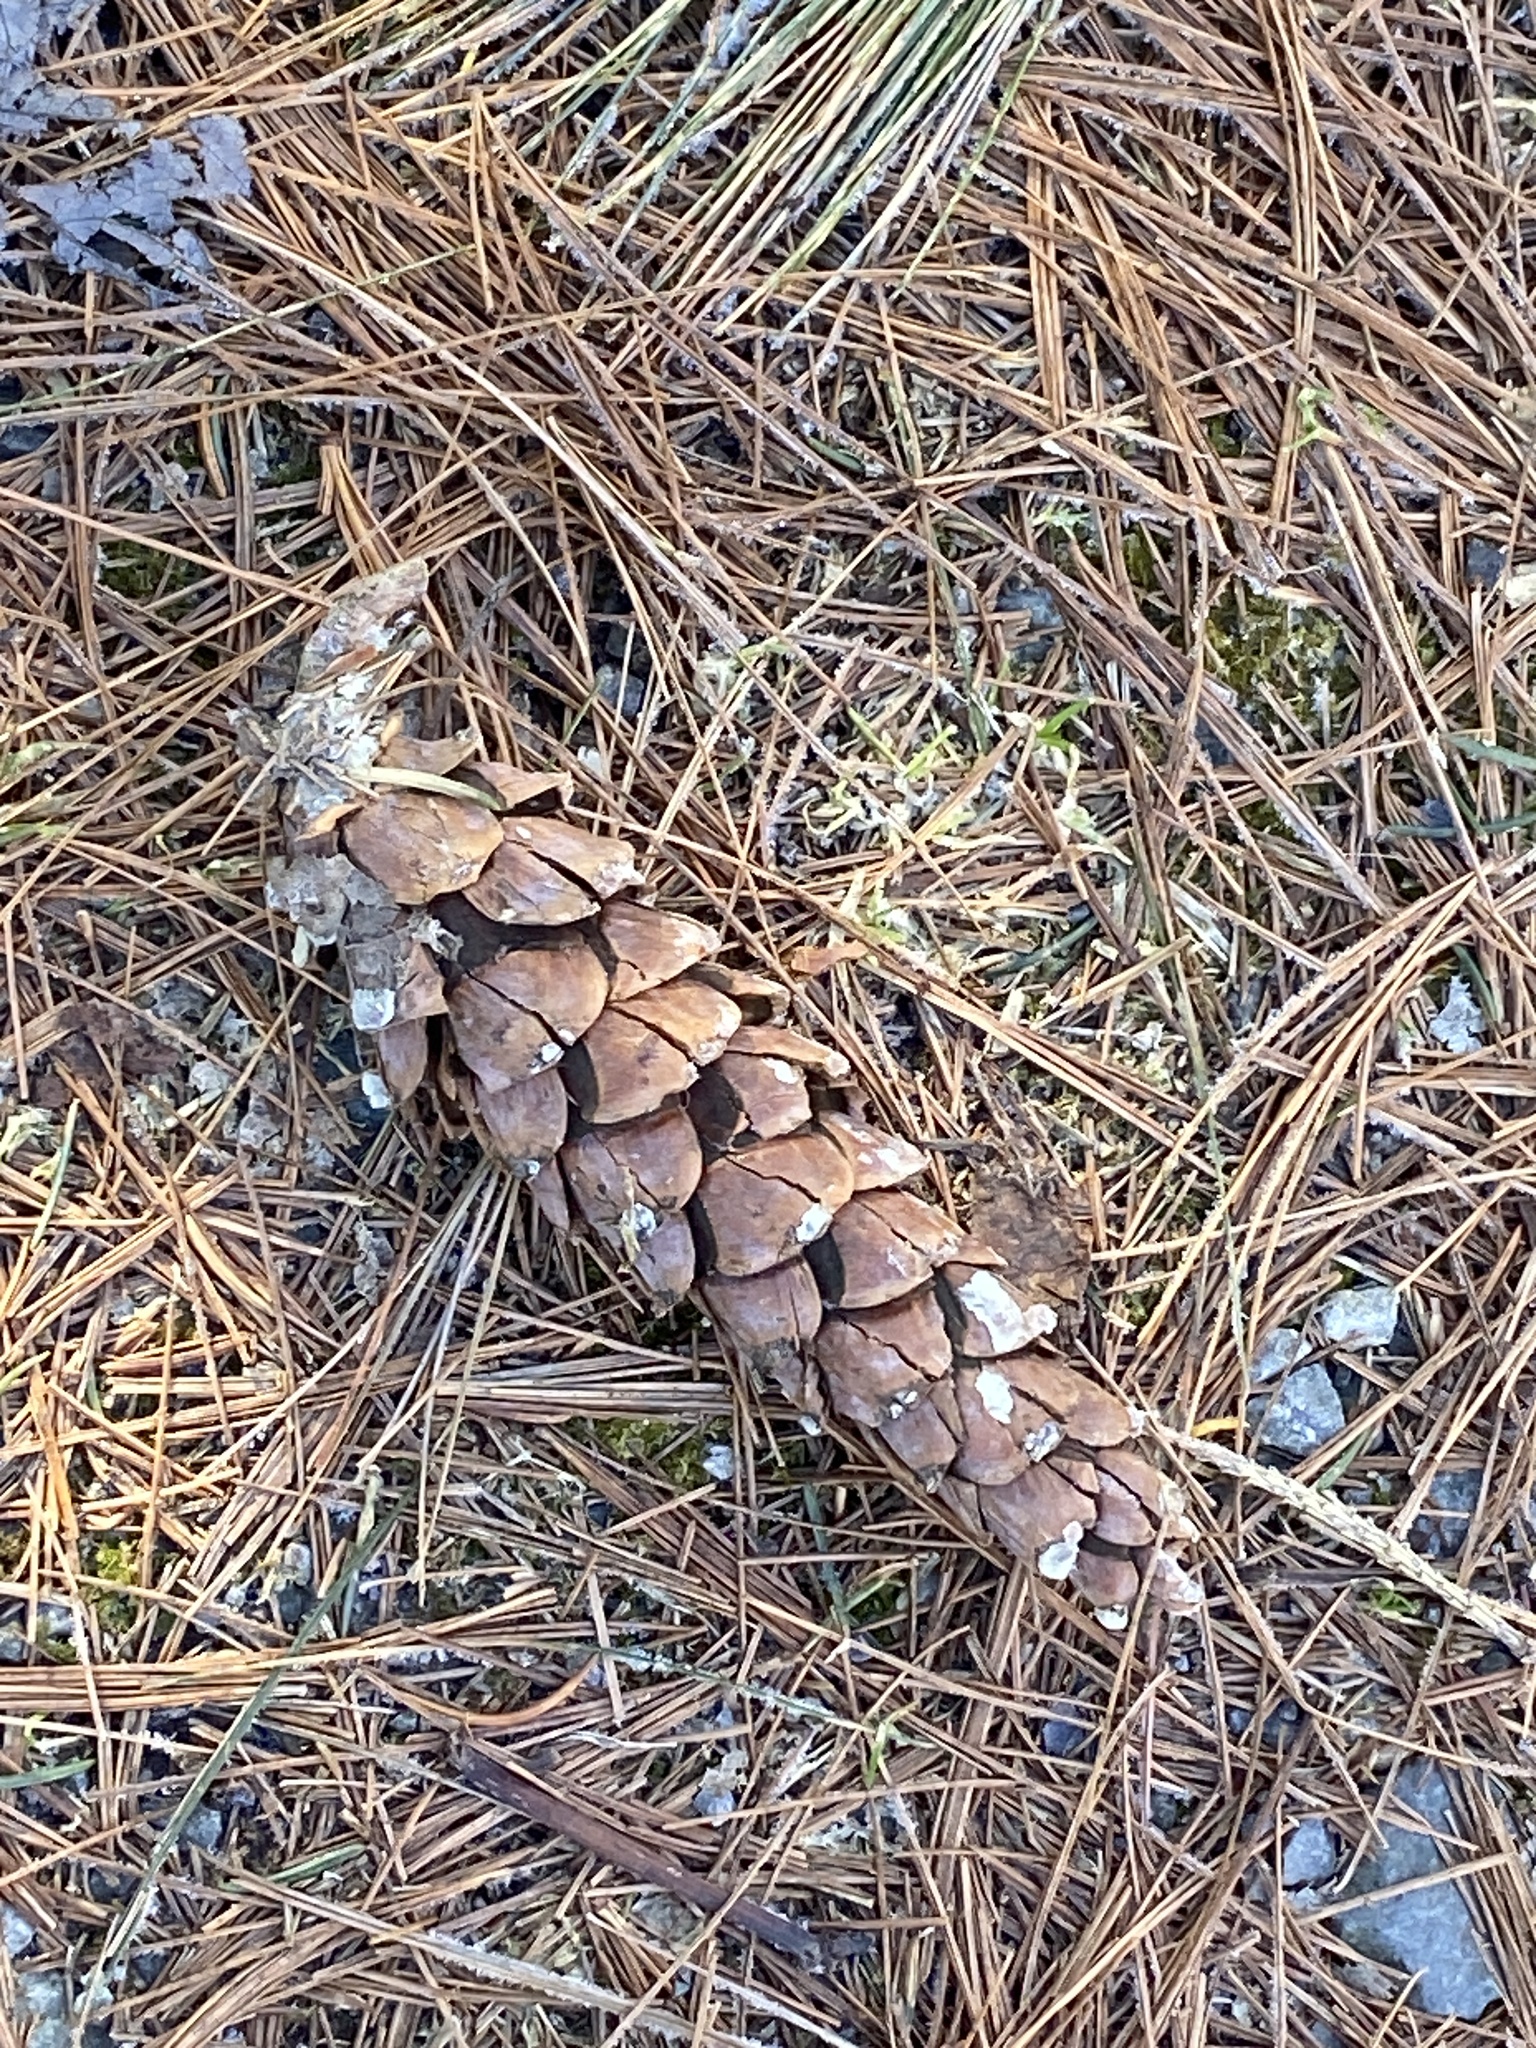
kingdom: Plantae
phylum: Tracheophyta
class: Pinopsida
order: Pinales
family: Pinaceae
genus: Pinus
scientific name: Pinus strobus
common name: Weymouth pine
